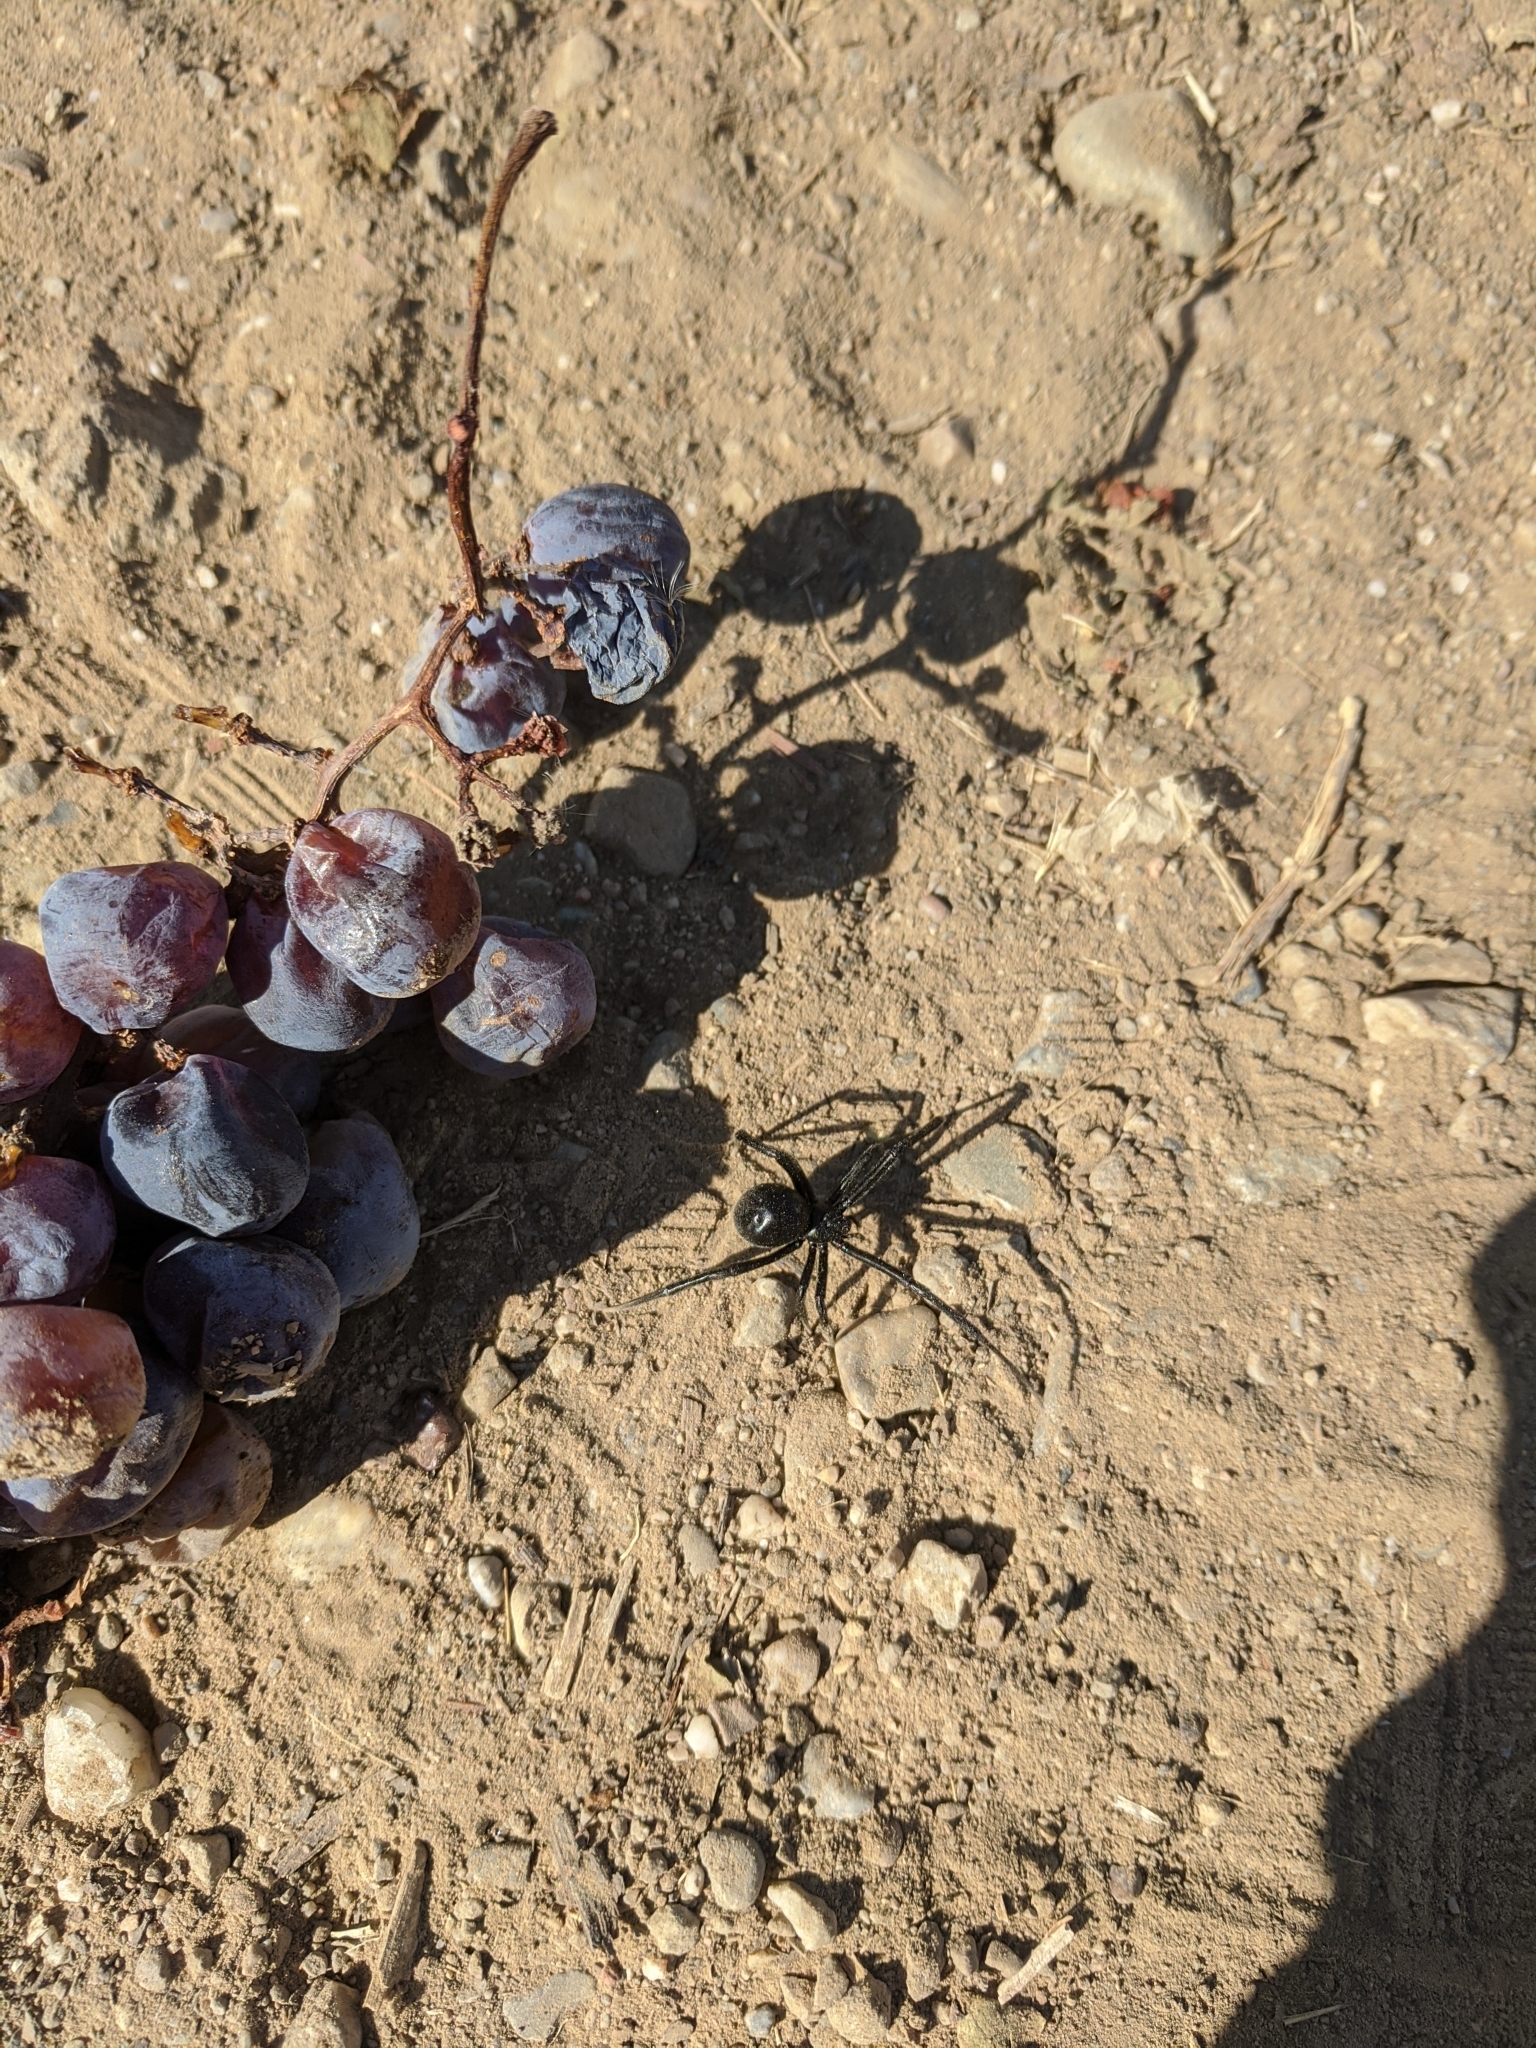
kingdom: Animalia
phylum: Arthropoda
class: Arachnida
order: Araneae
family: Theridiidae
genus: Latrodectus
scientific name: Latrodectus hesperus
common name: Western black widow
